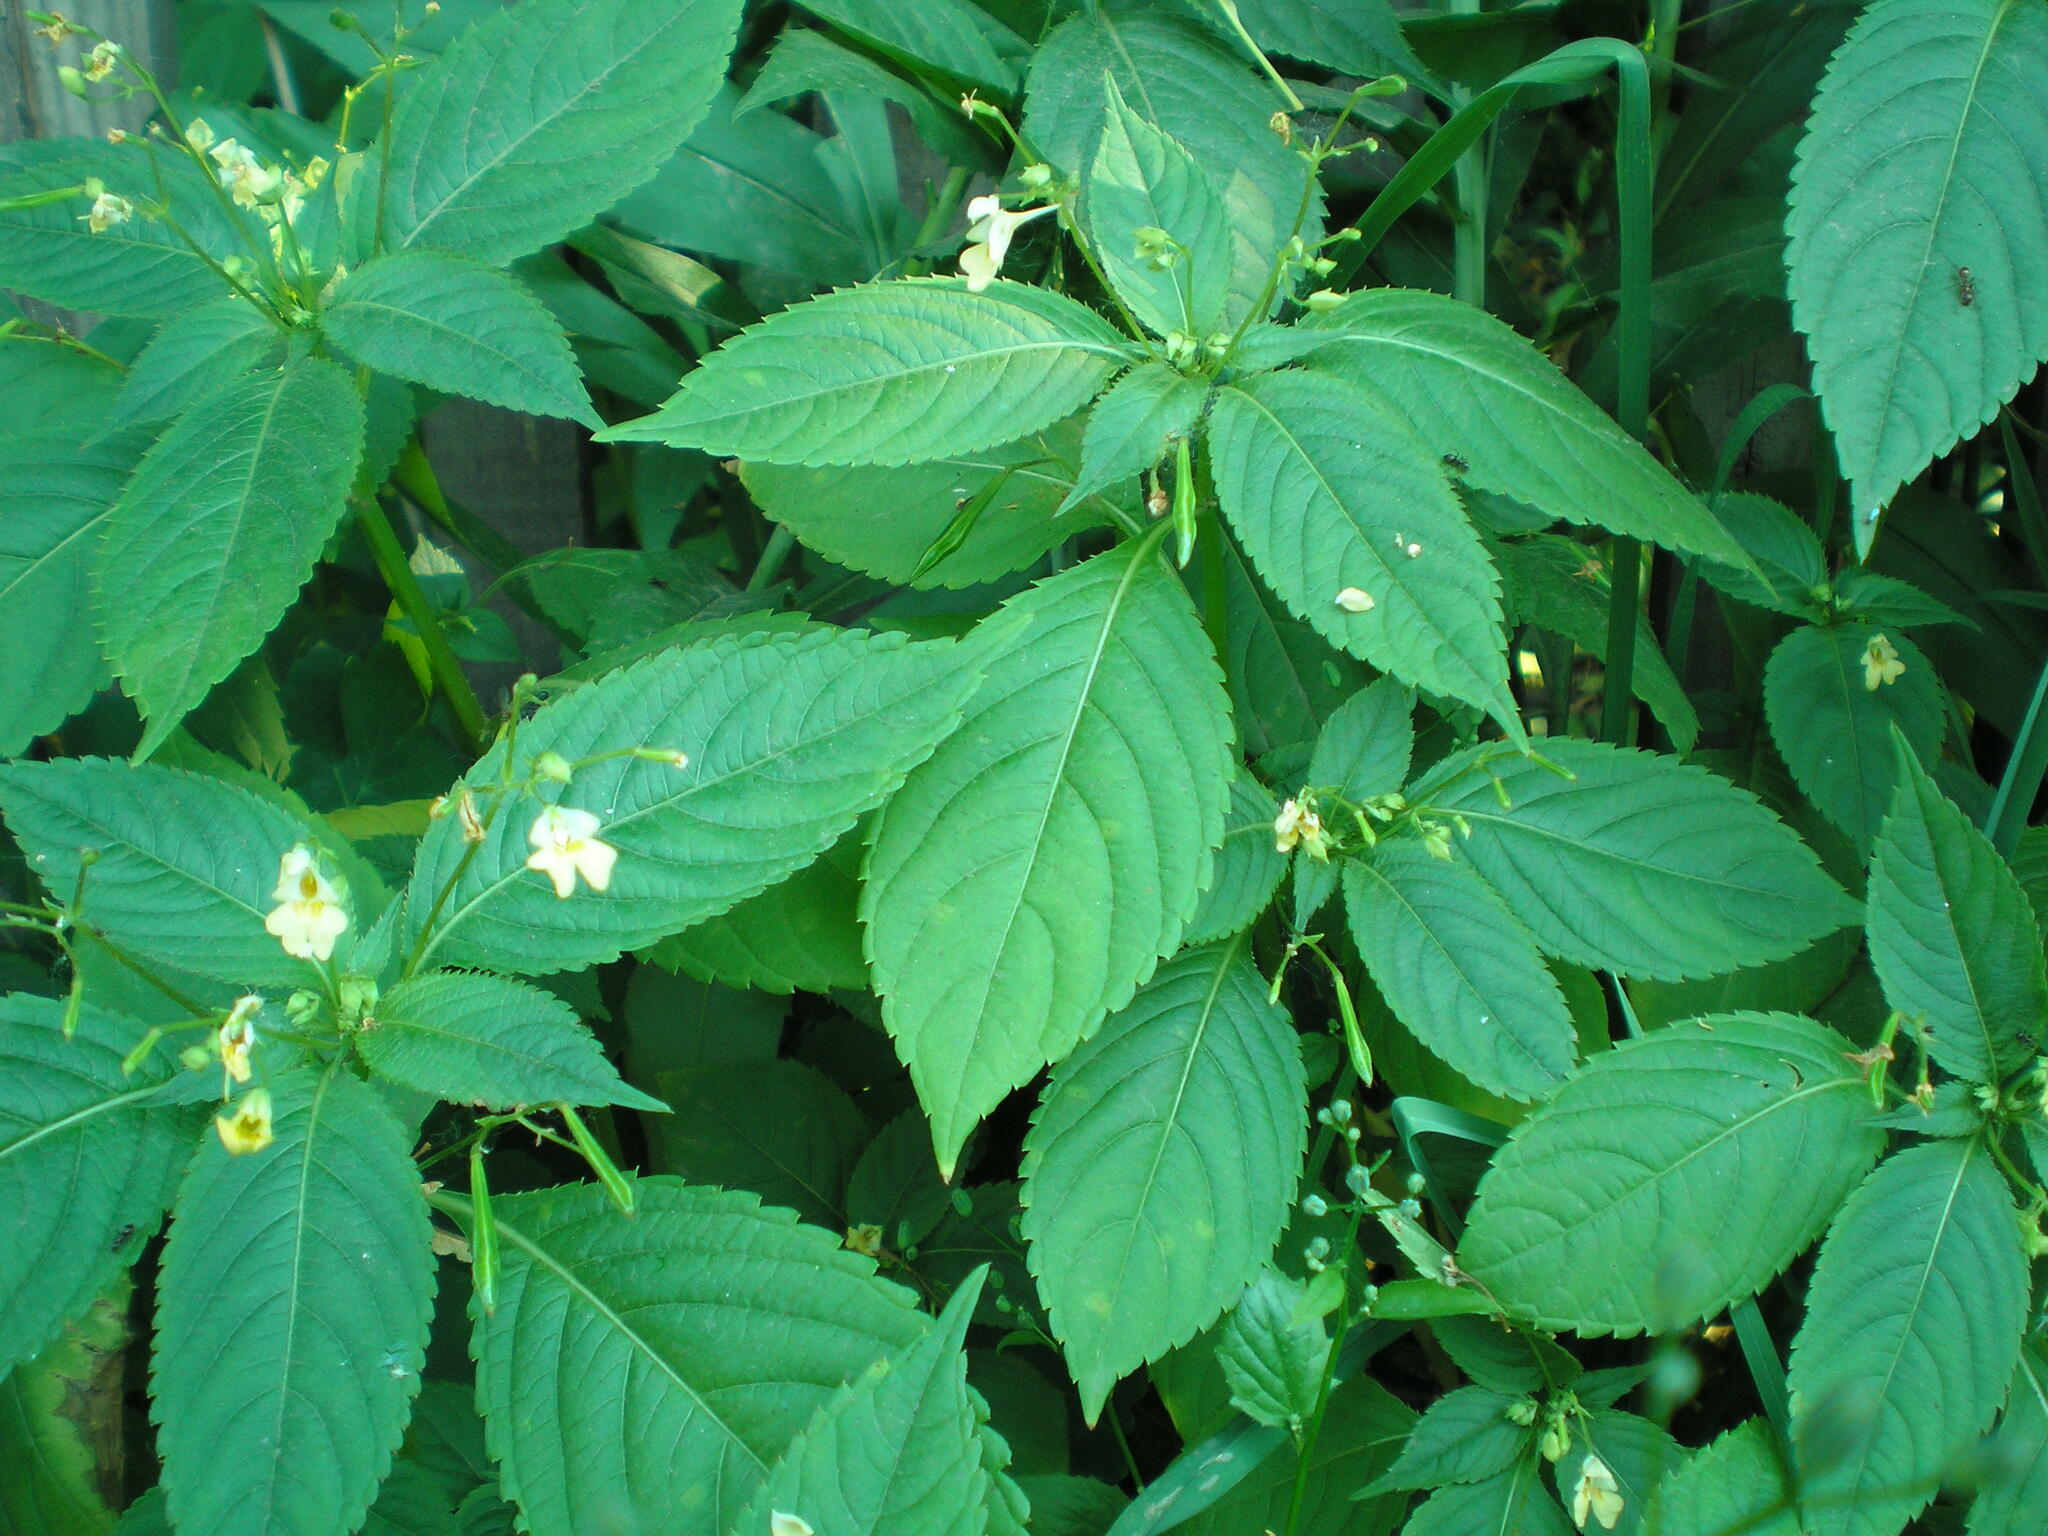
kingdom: Plantae
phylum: Tracheophyta
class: Magnoliopsida
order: Ericales
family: Balsaminaceae
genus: Impatiens
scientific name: Impatiens parviflora
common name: Small balsam
